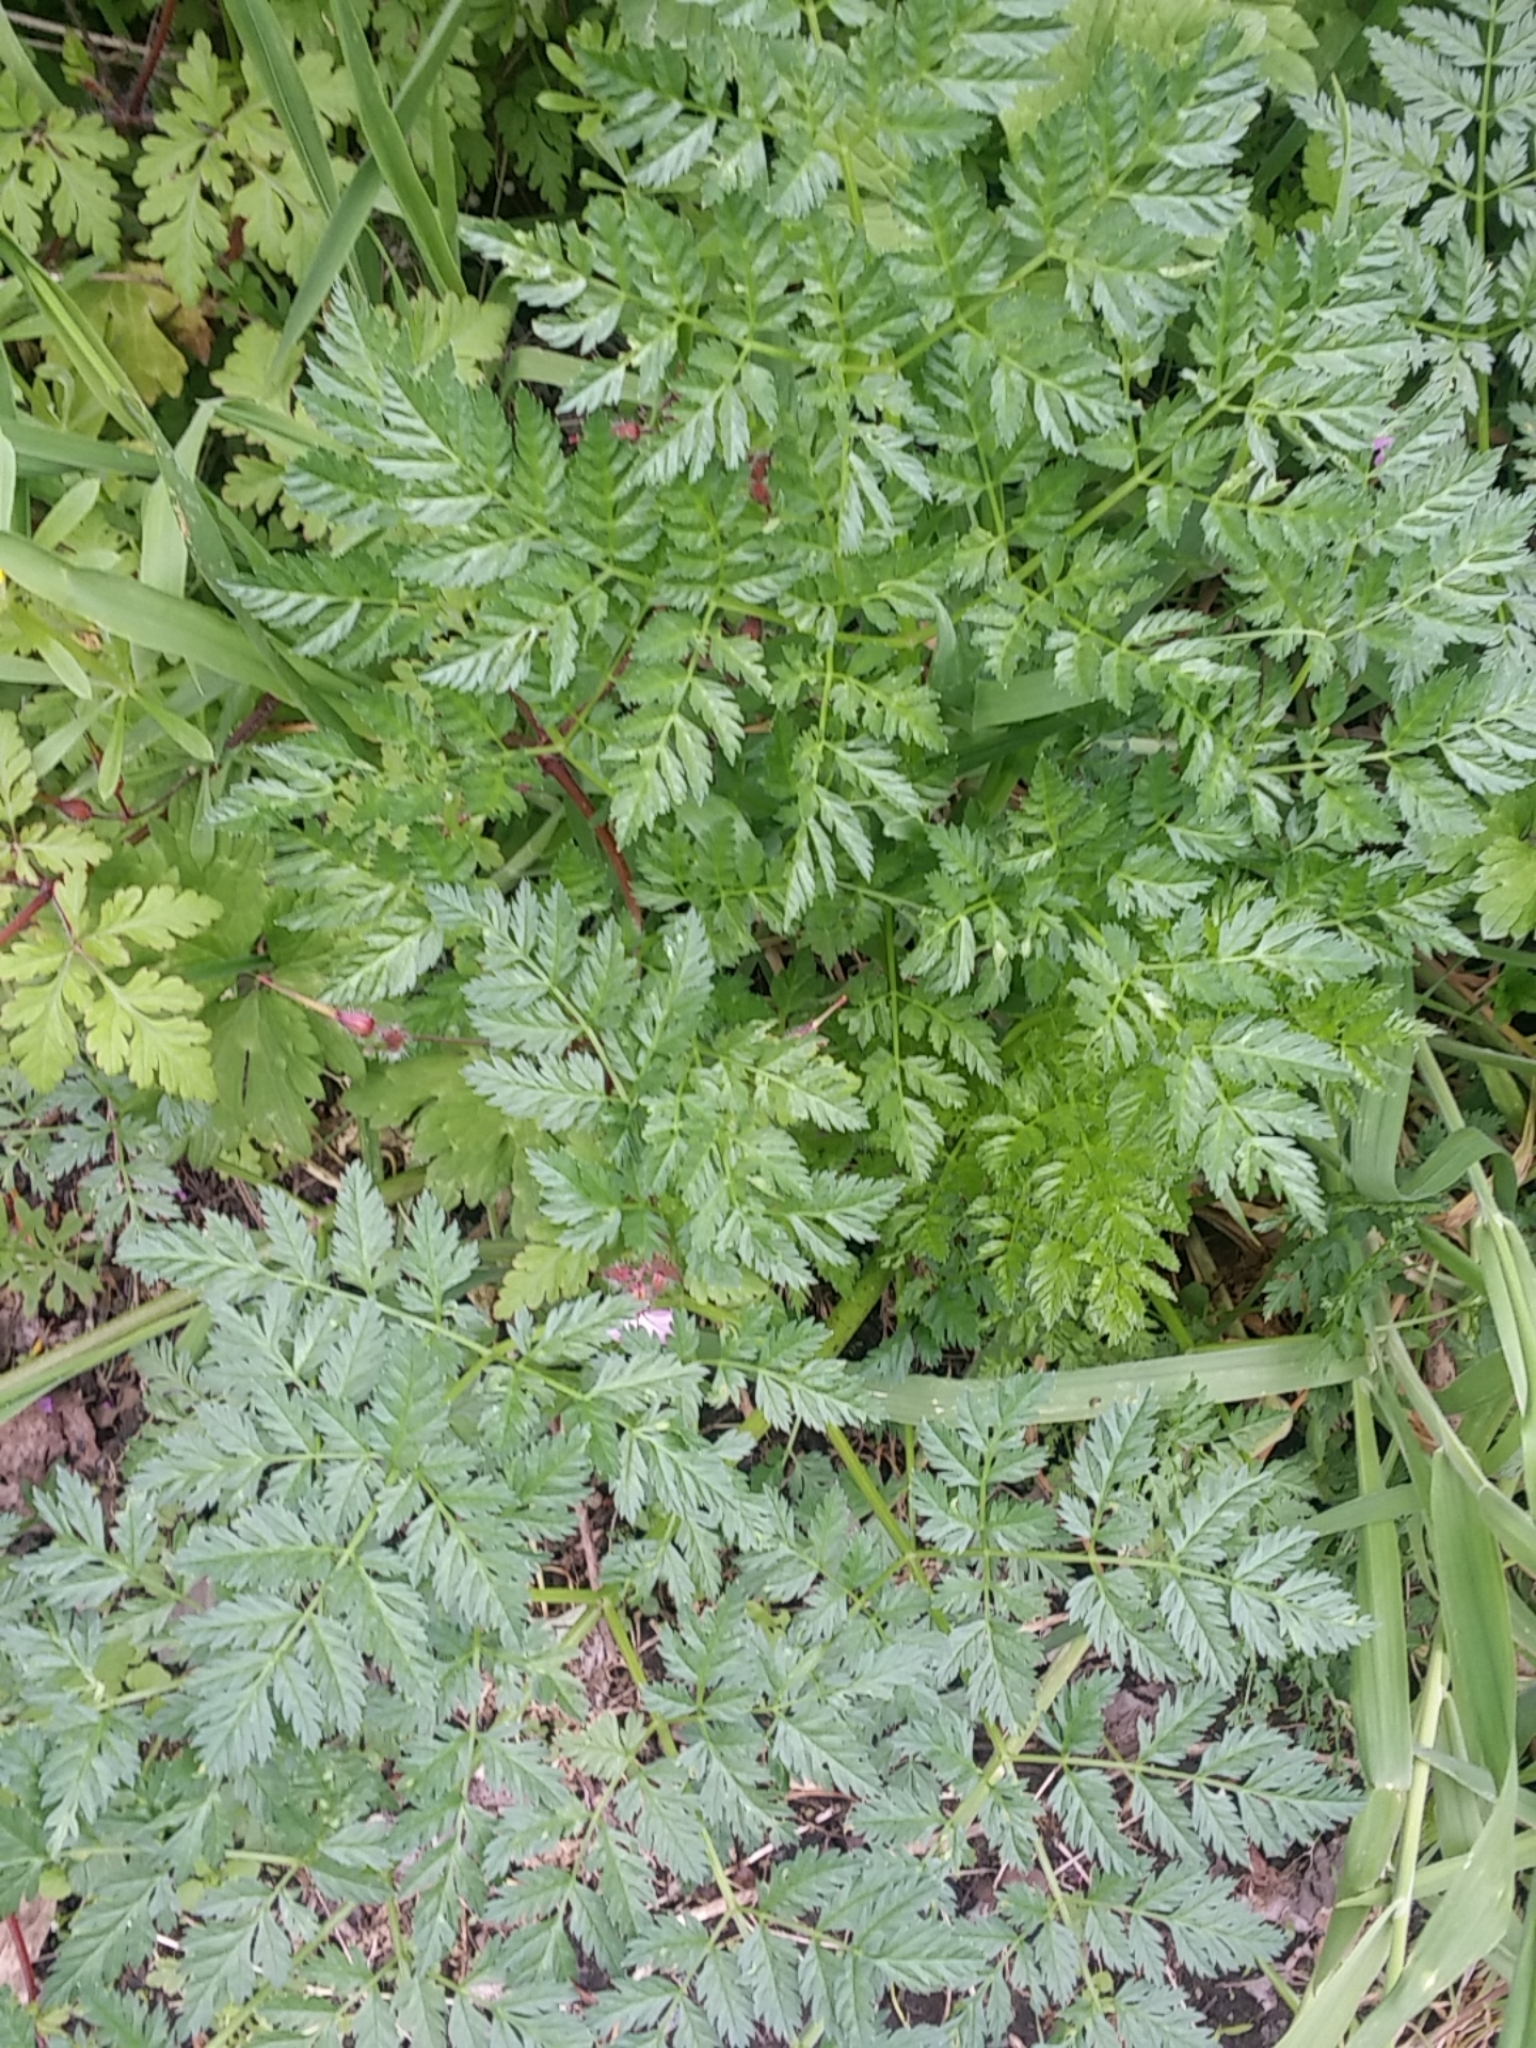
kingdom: Plantae
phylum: Tracheophyta
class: Magnoliopsida
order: Apiales
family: Apiaceae
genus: Conium
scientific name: Conium maculatum
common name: Hemlock
